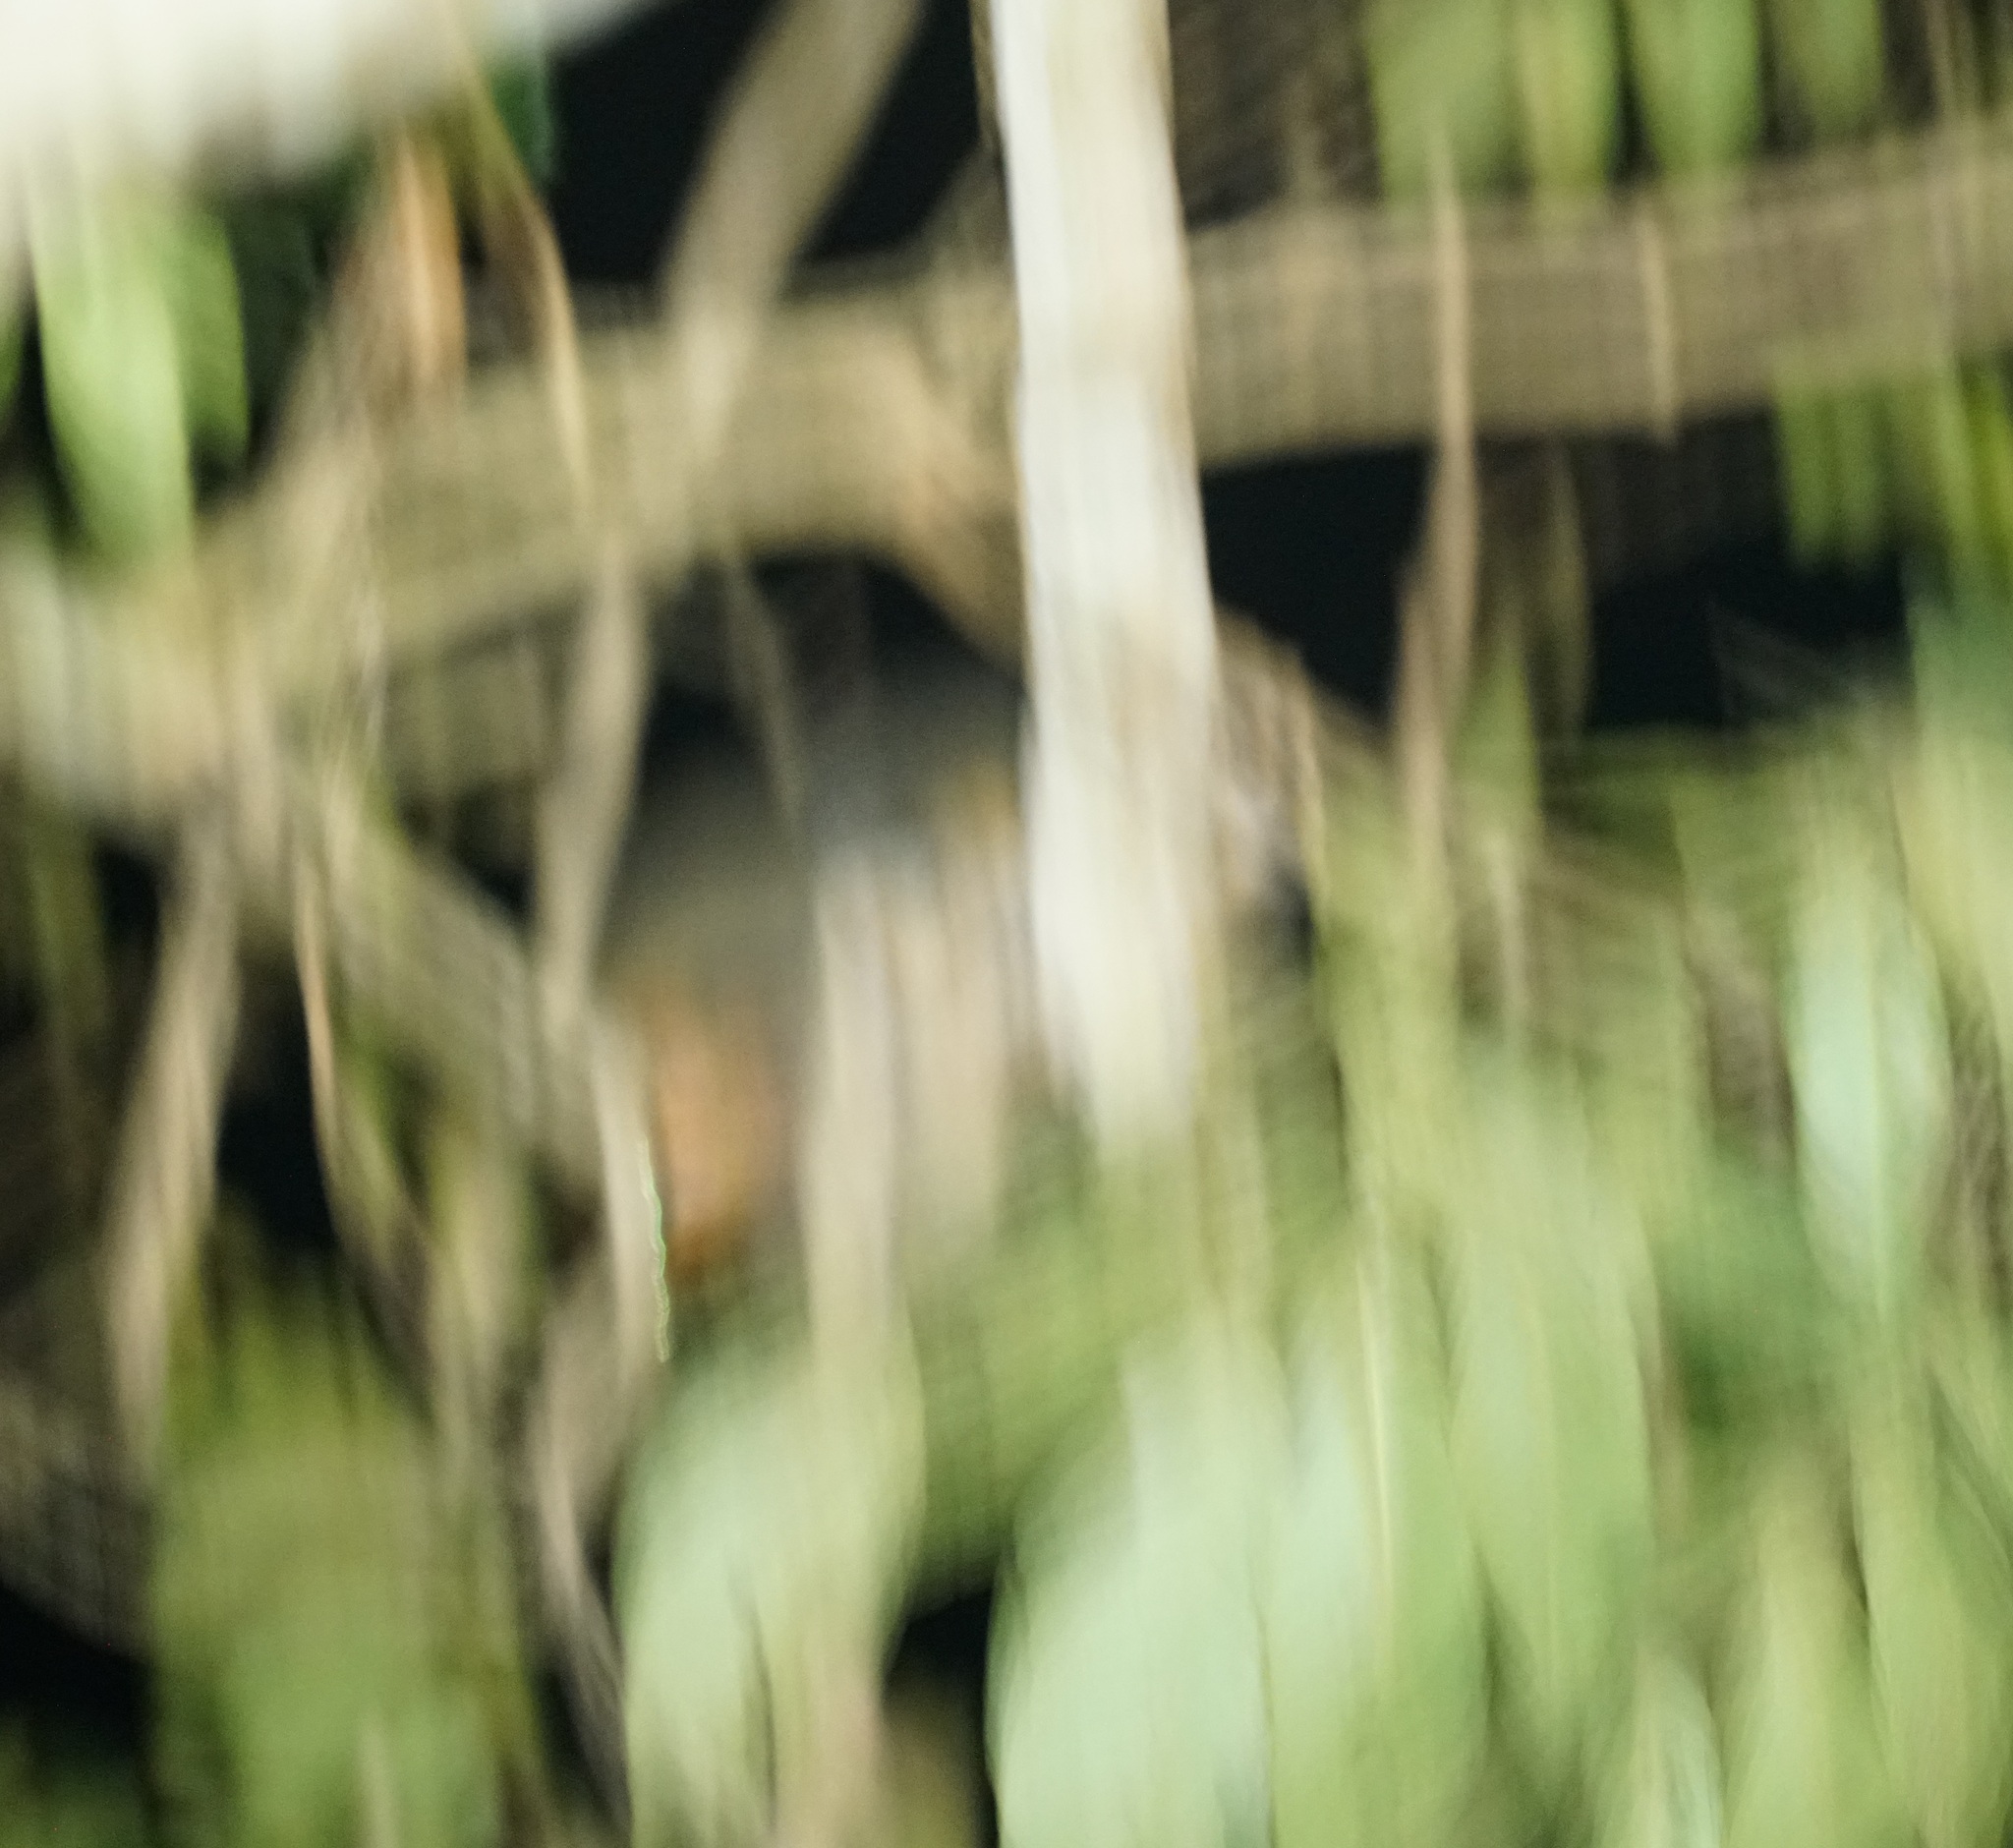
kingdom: Animalia
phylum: Chordata
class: Mammalia
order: Primates
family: Aotidae
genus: Aotus
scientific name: Aotus azarae
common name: Azara's night monkey
